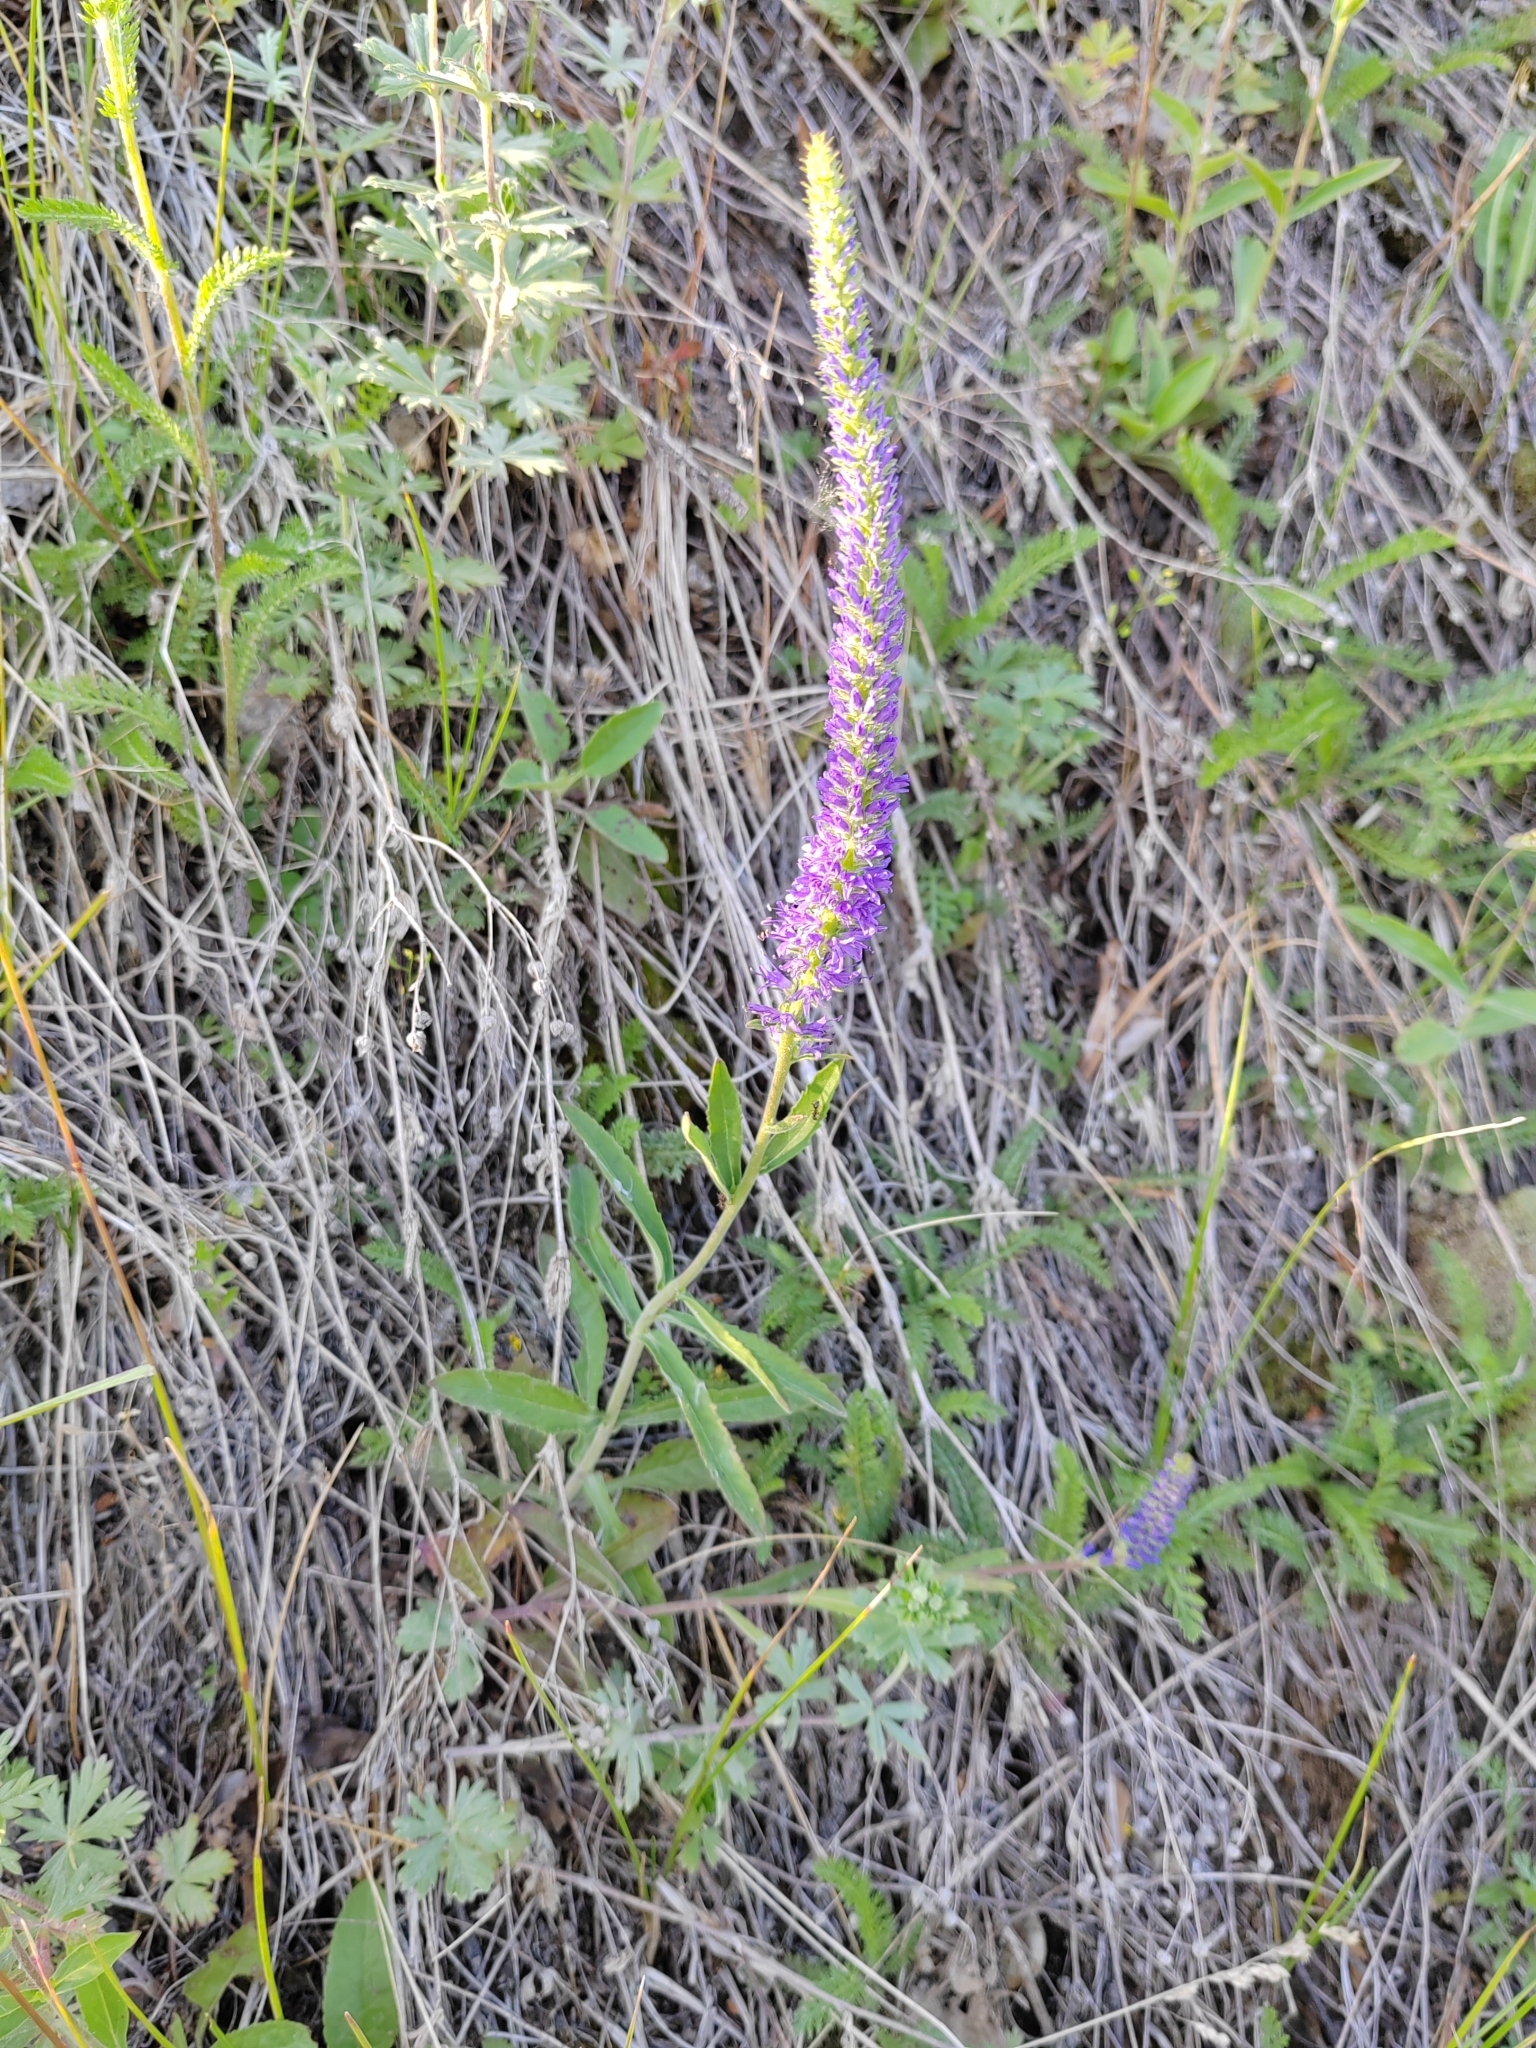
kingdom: Plantae
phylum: Tracheophyta
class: Magnoliopsida
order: Lamiales
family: Plantaginaceae
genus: Veronica
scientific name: Veronica spicata
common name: Spiked speedwell
